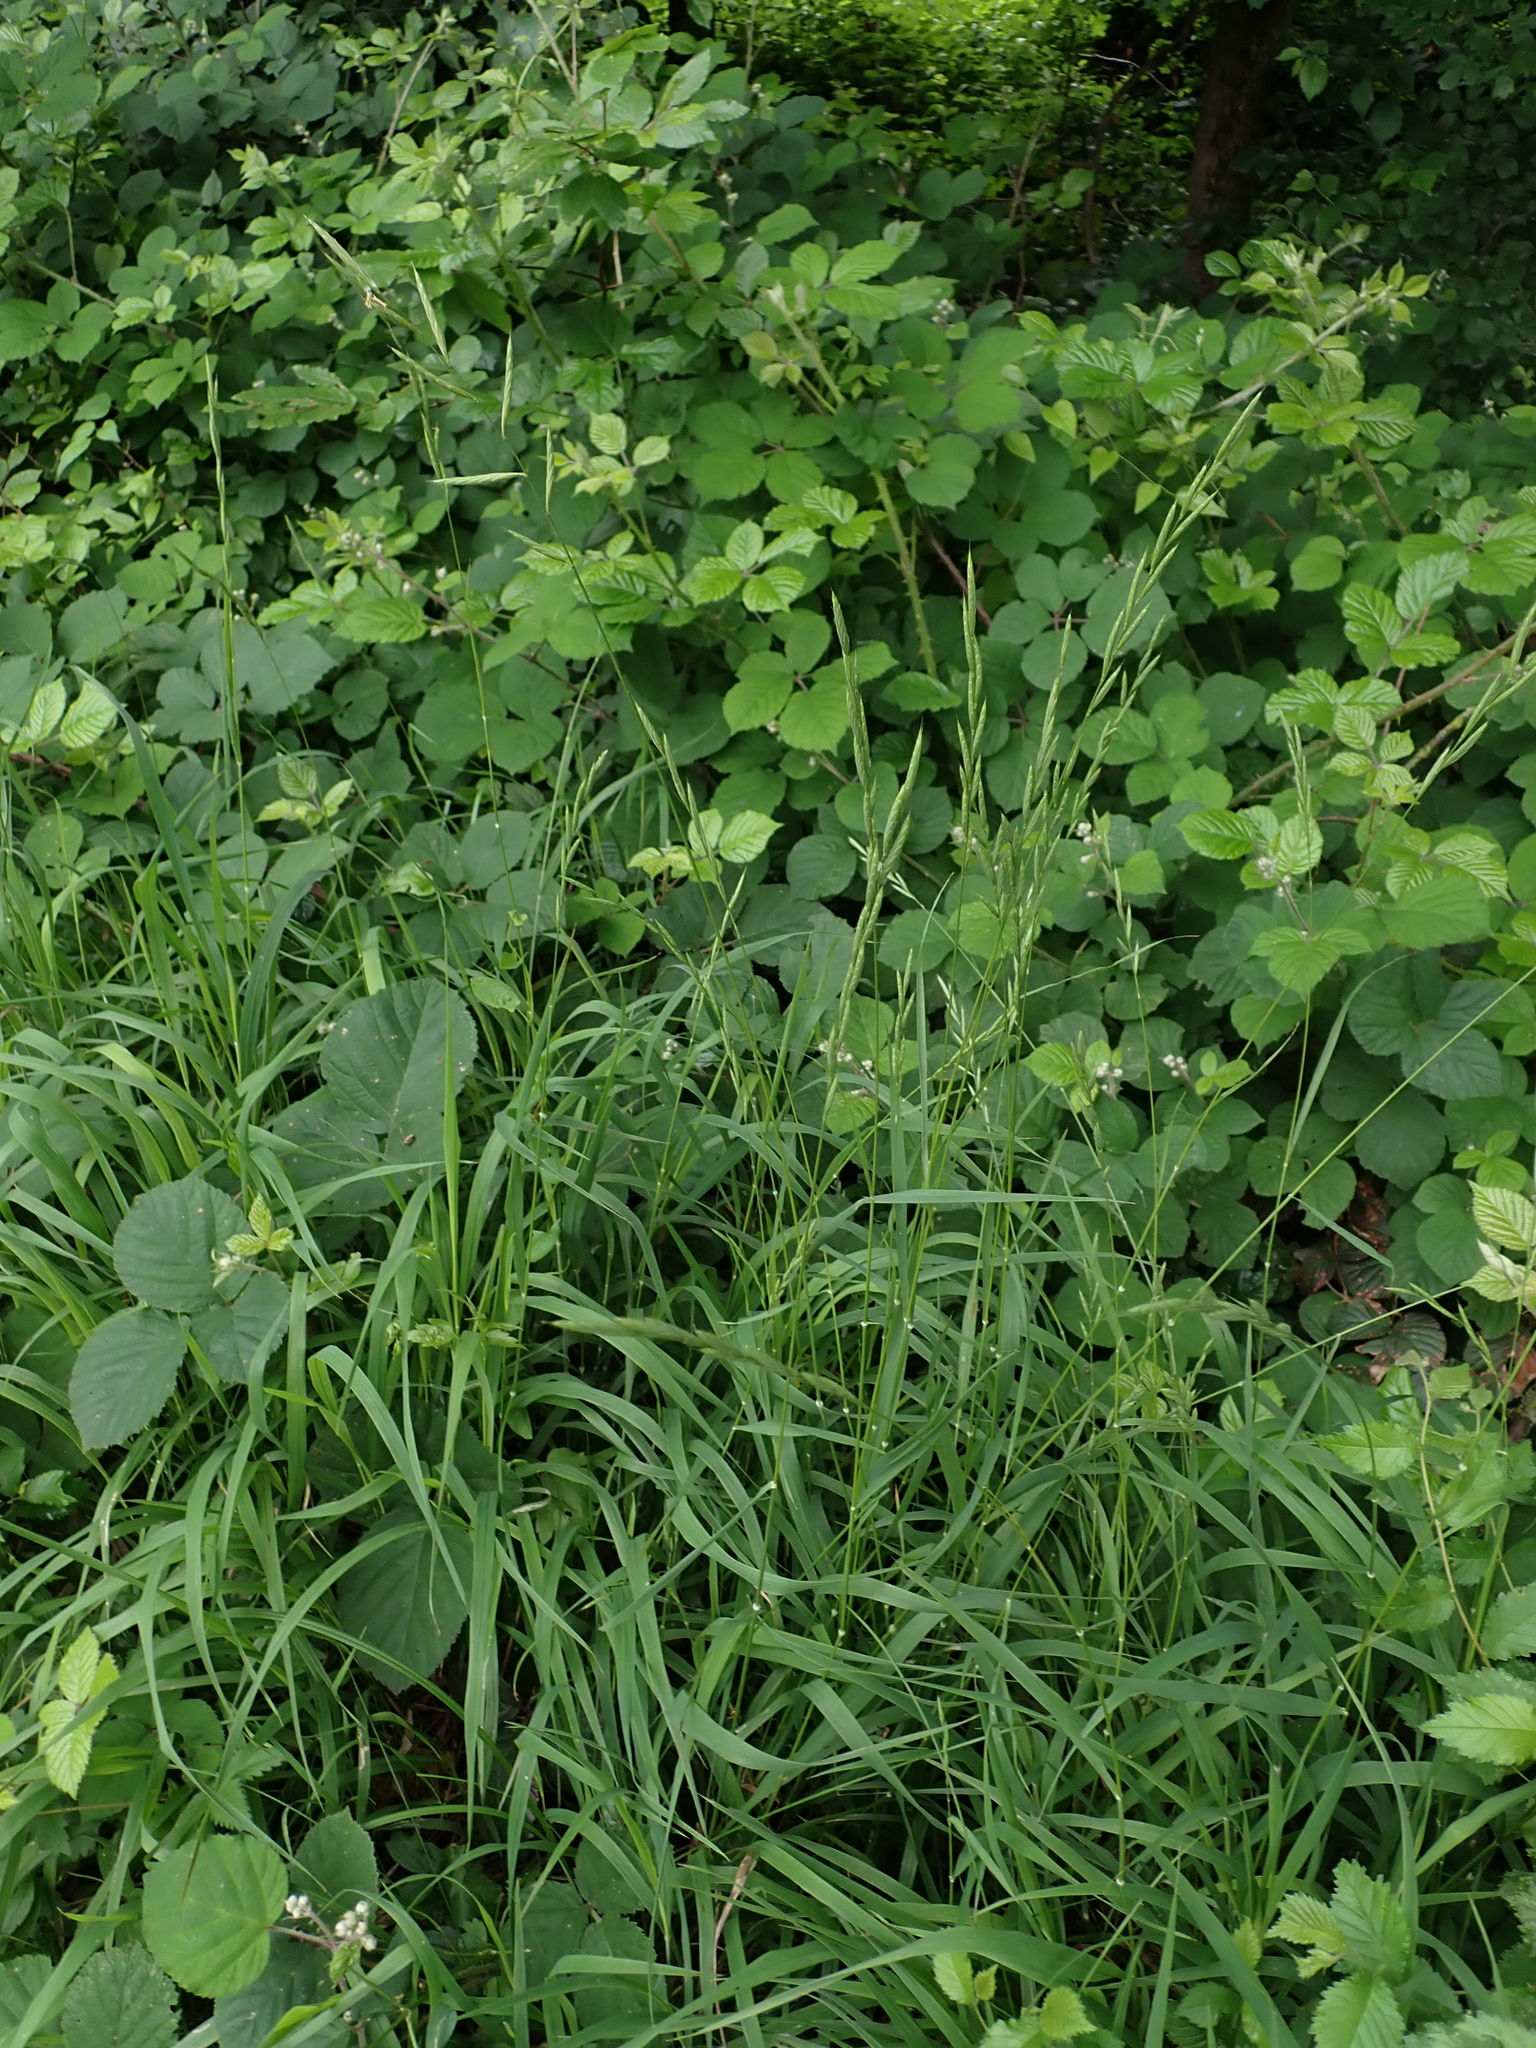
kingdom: Plantae
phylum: Tracheophyta
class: Liliopsida
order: Poales
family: Poaceae
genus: Brachypodium
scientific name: Brachypodium sylvaticum
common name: False-brome
